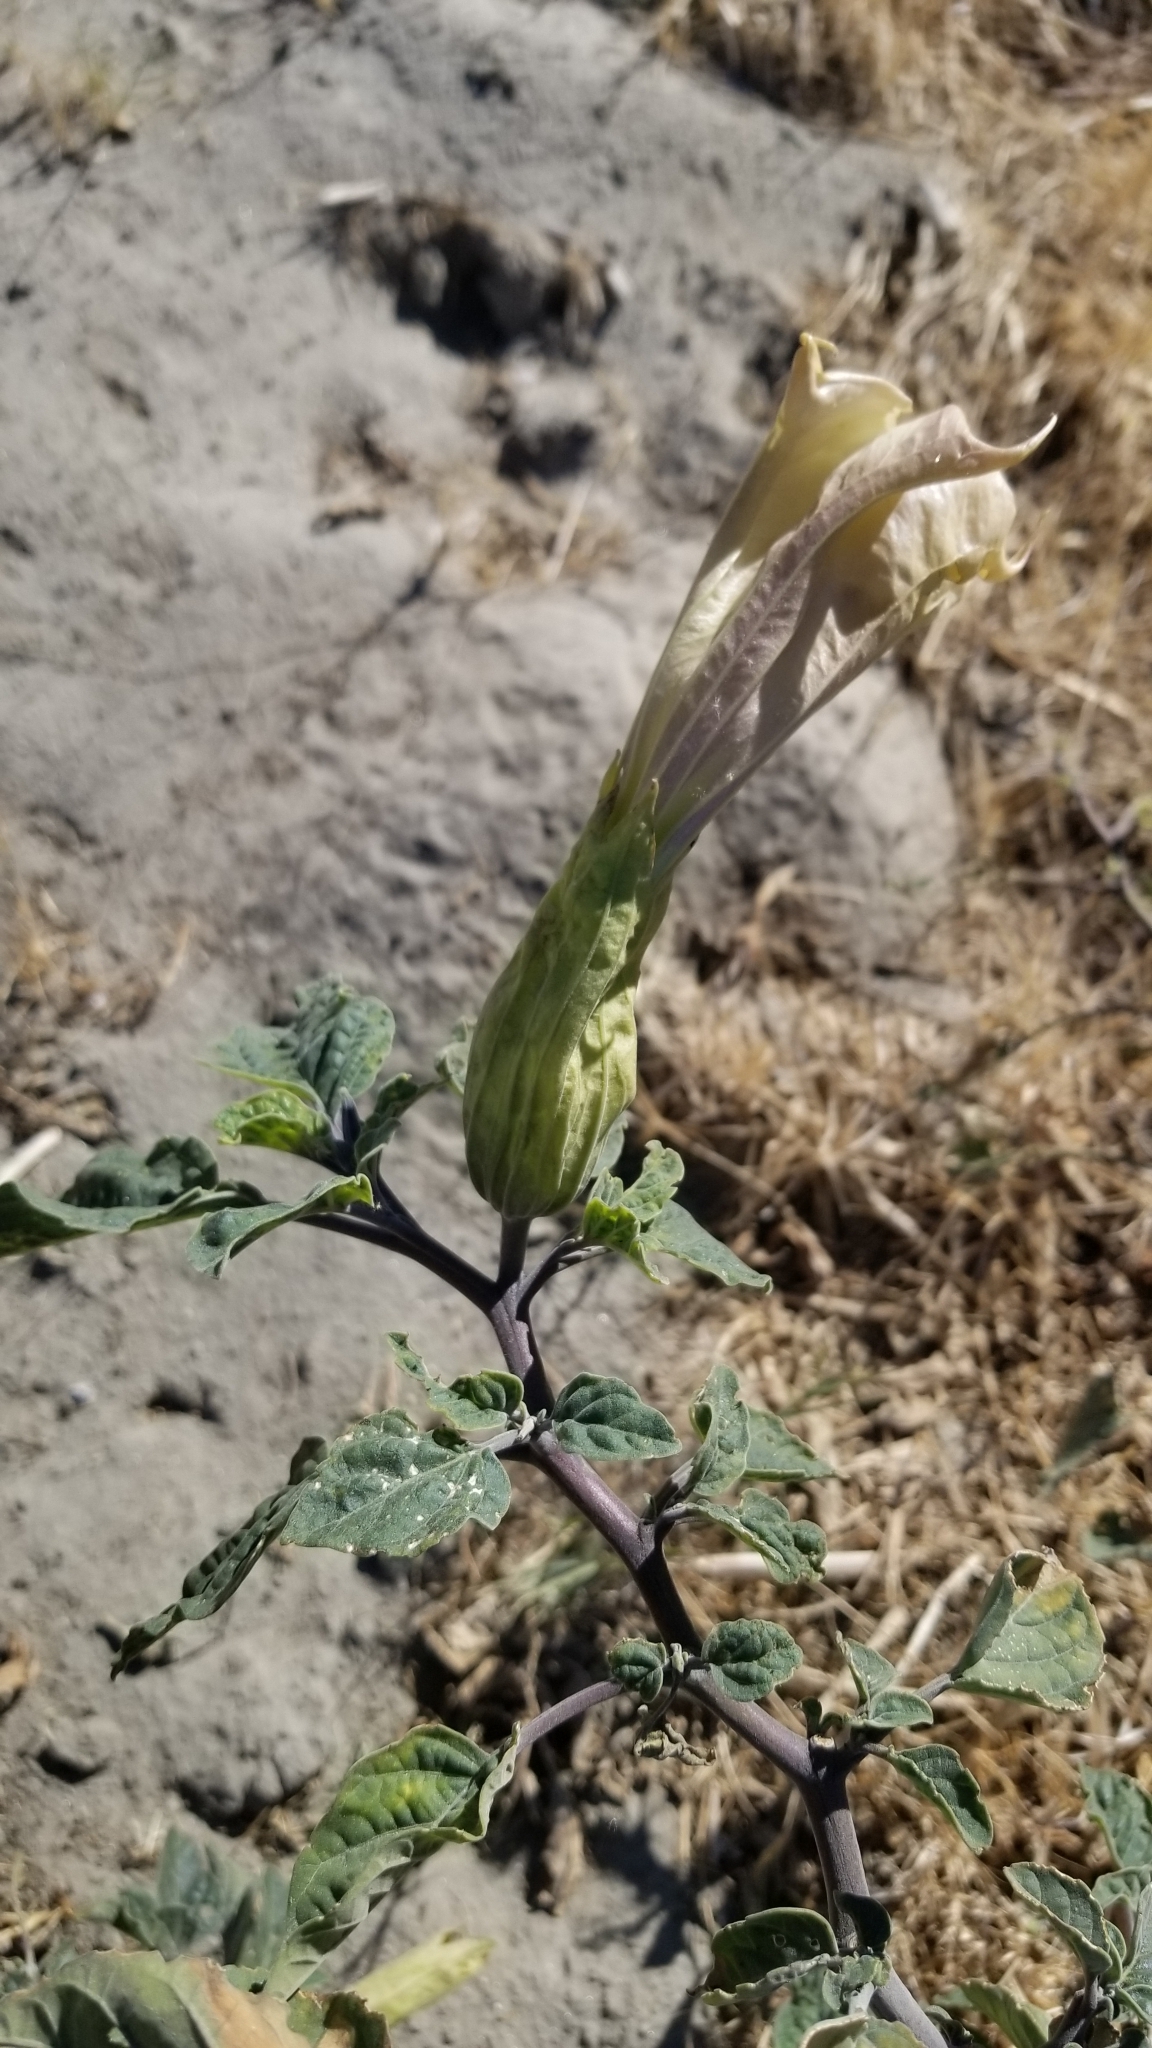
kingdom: Plantae
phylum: Tracheophyta
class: Magnoliopsida
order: Solanales
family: Solanaceae
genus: Datura
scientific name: Datura wrightii
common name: Sacred thorn-apple
